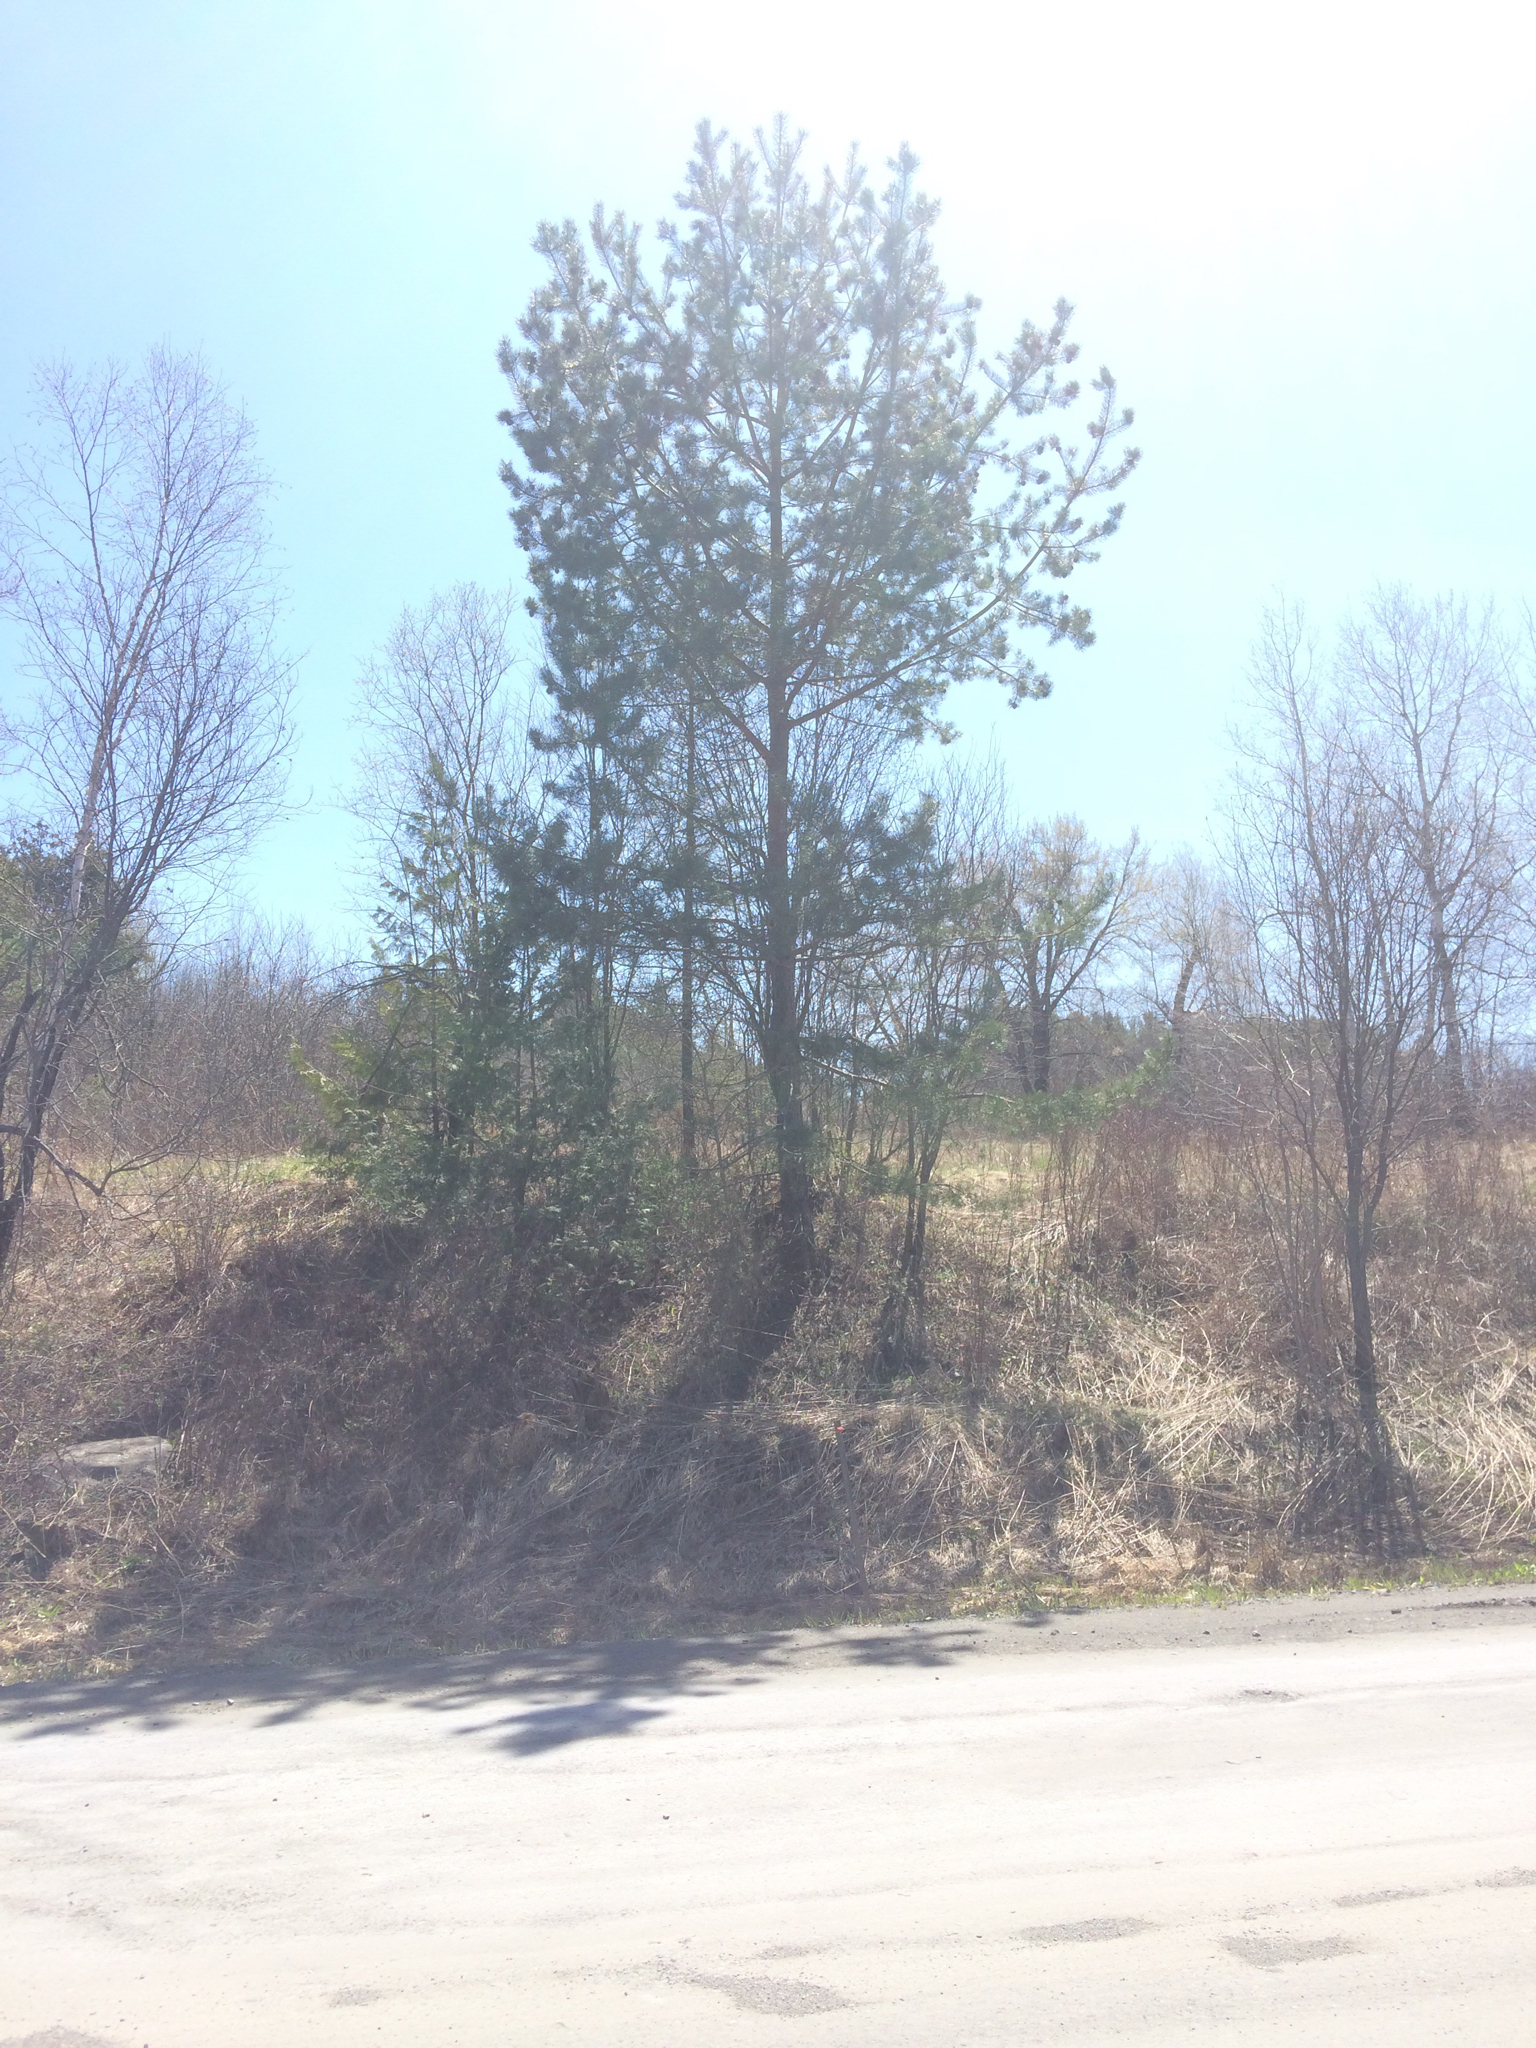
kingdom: Plantae
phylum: Tracheophyta
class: Pinopsida
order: Pinales
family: Pinaceae
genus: Pinus
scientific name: Pinus sylvestris
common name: Scots pine
